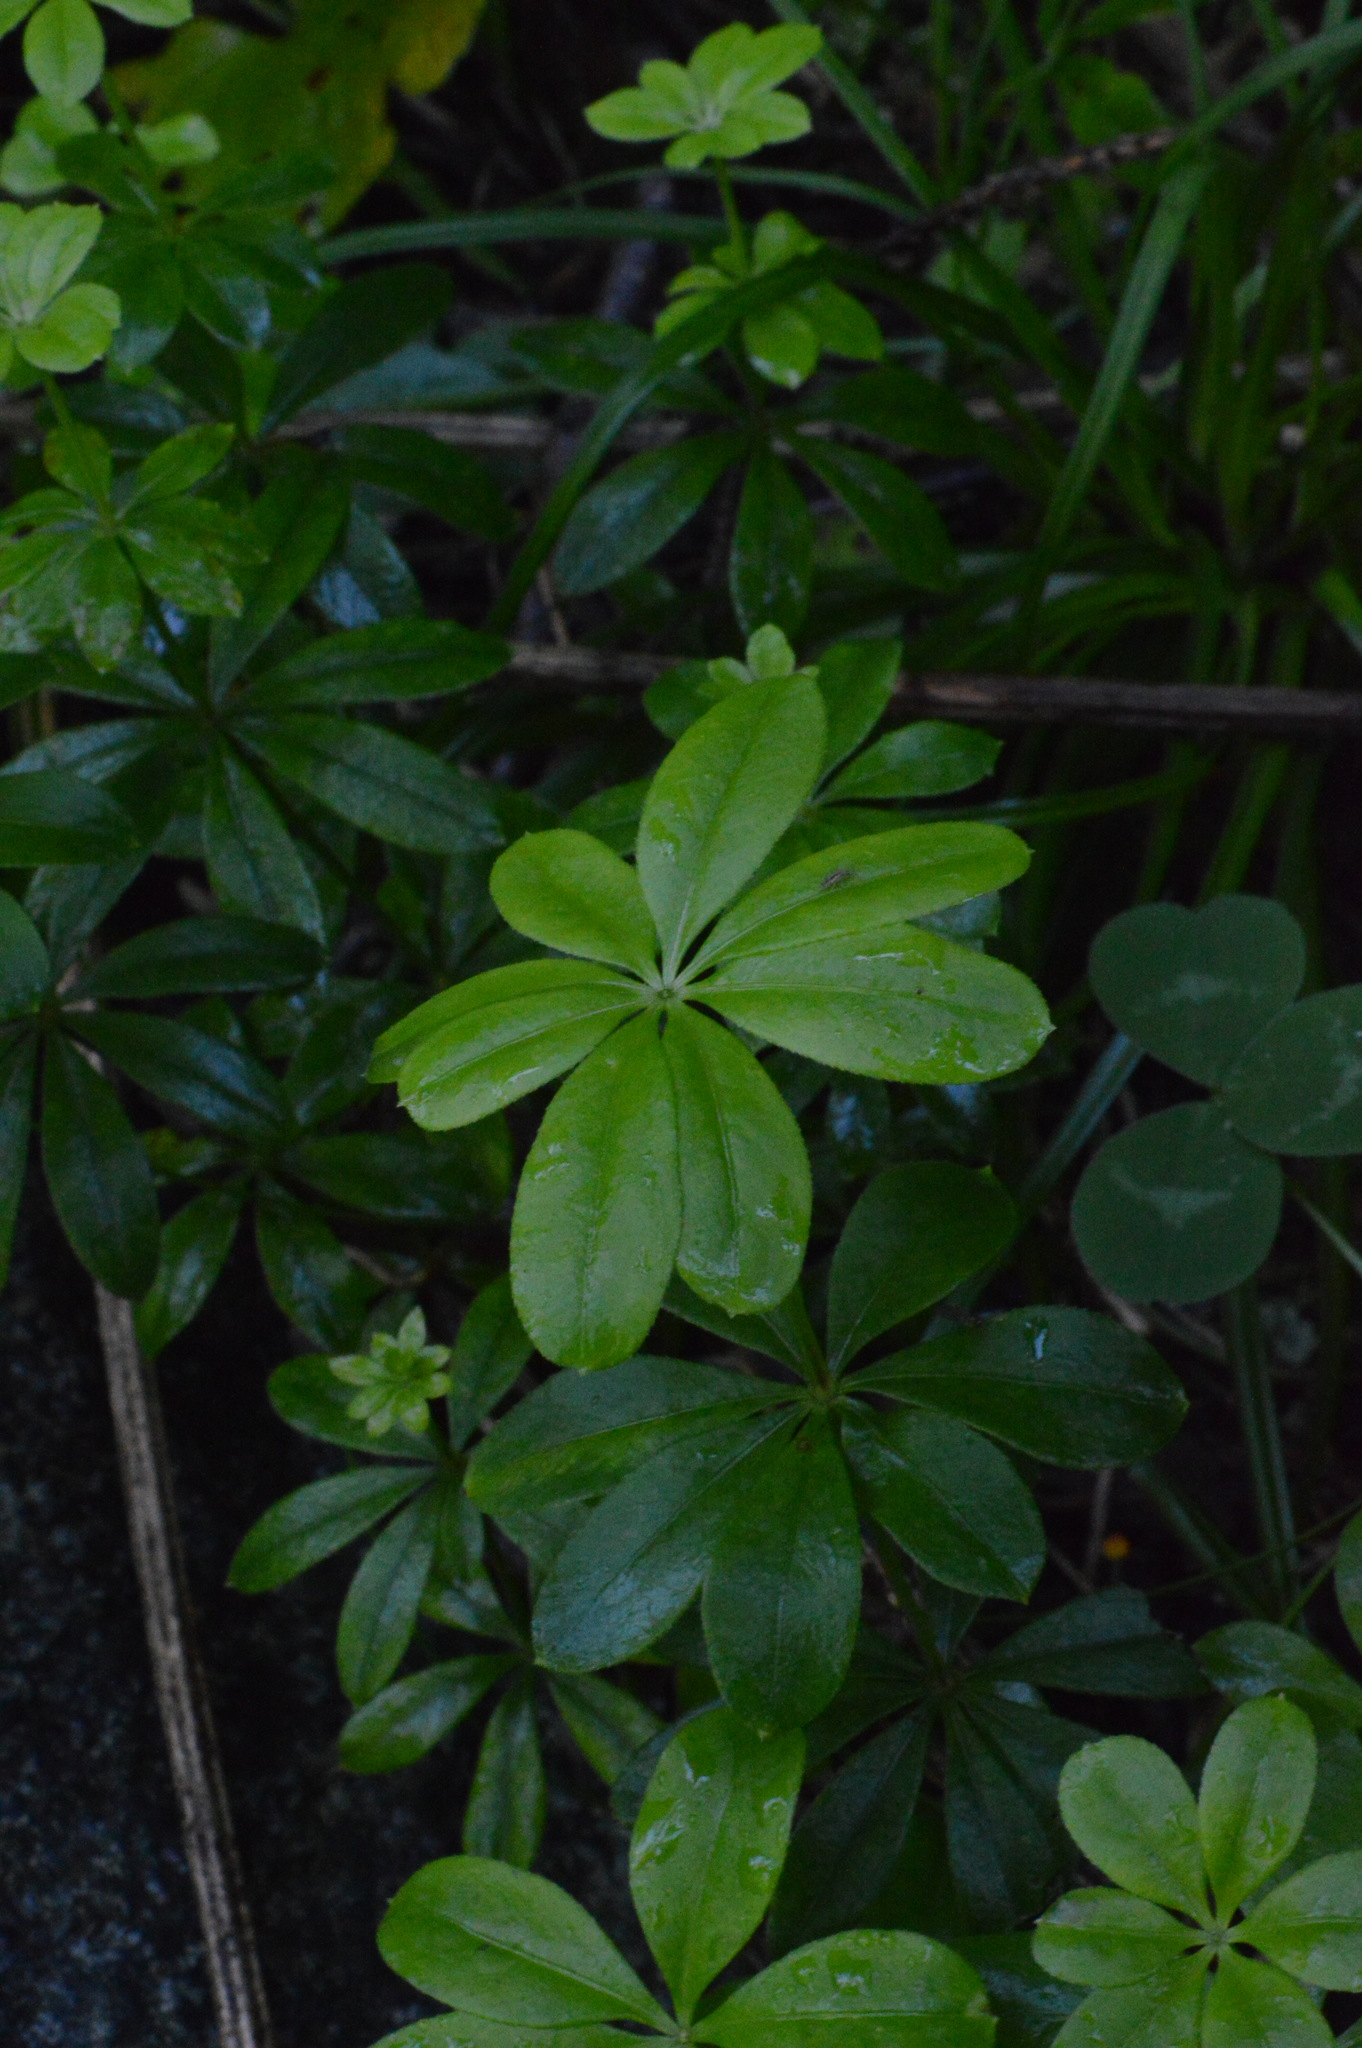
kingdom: Plantae
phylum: Tracheophyta
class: Magnoliopsida
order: Gentianales
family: Rubiaceae
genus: Galium
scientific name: Galium odoratum
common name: Sweet woodruff
